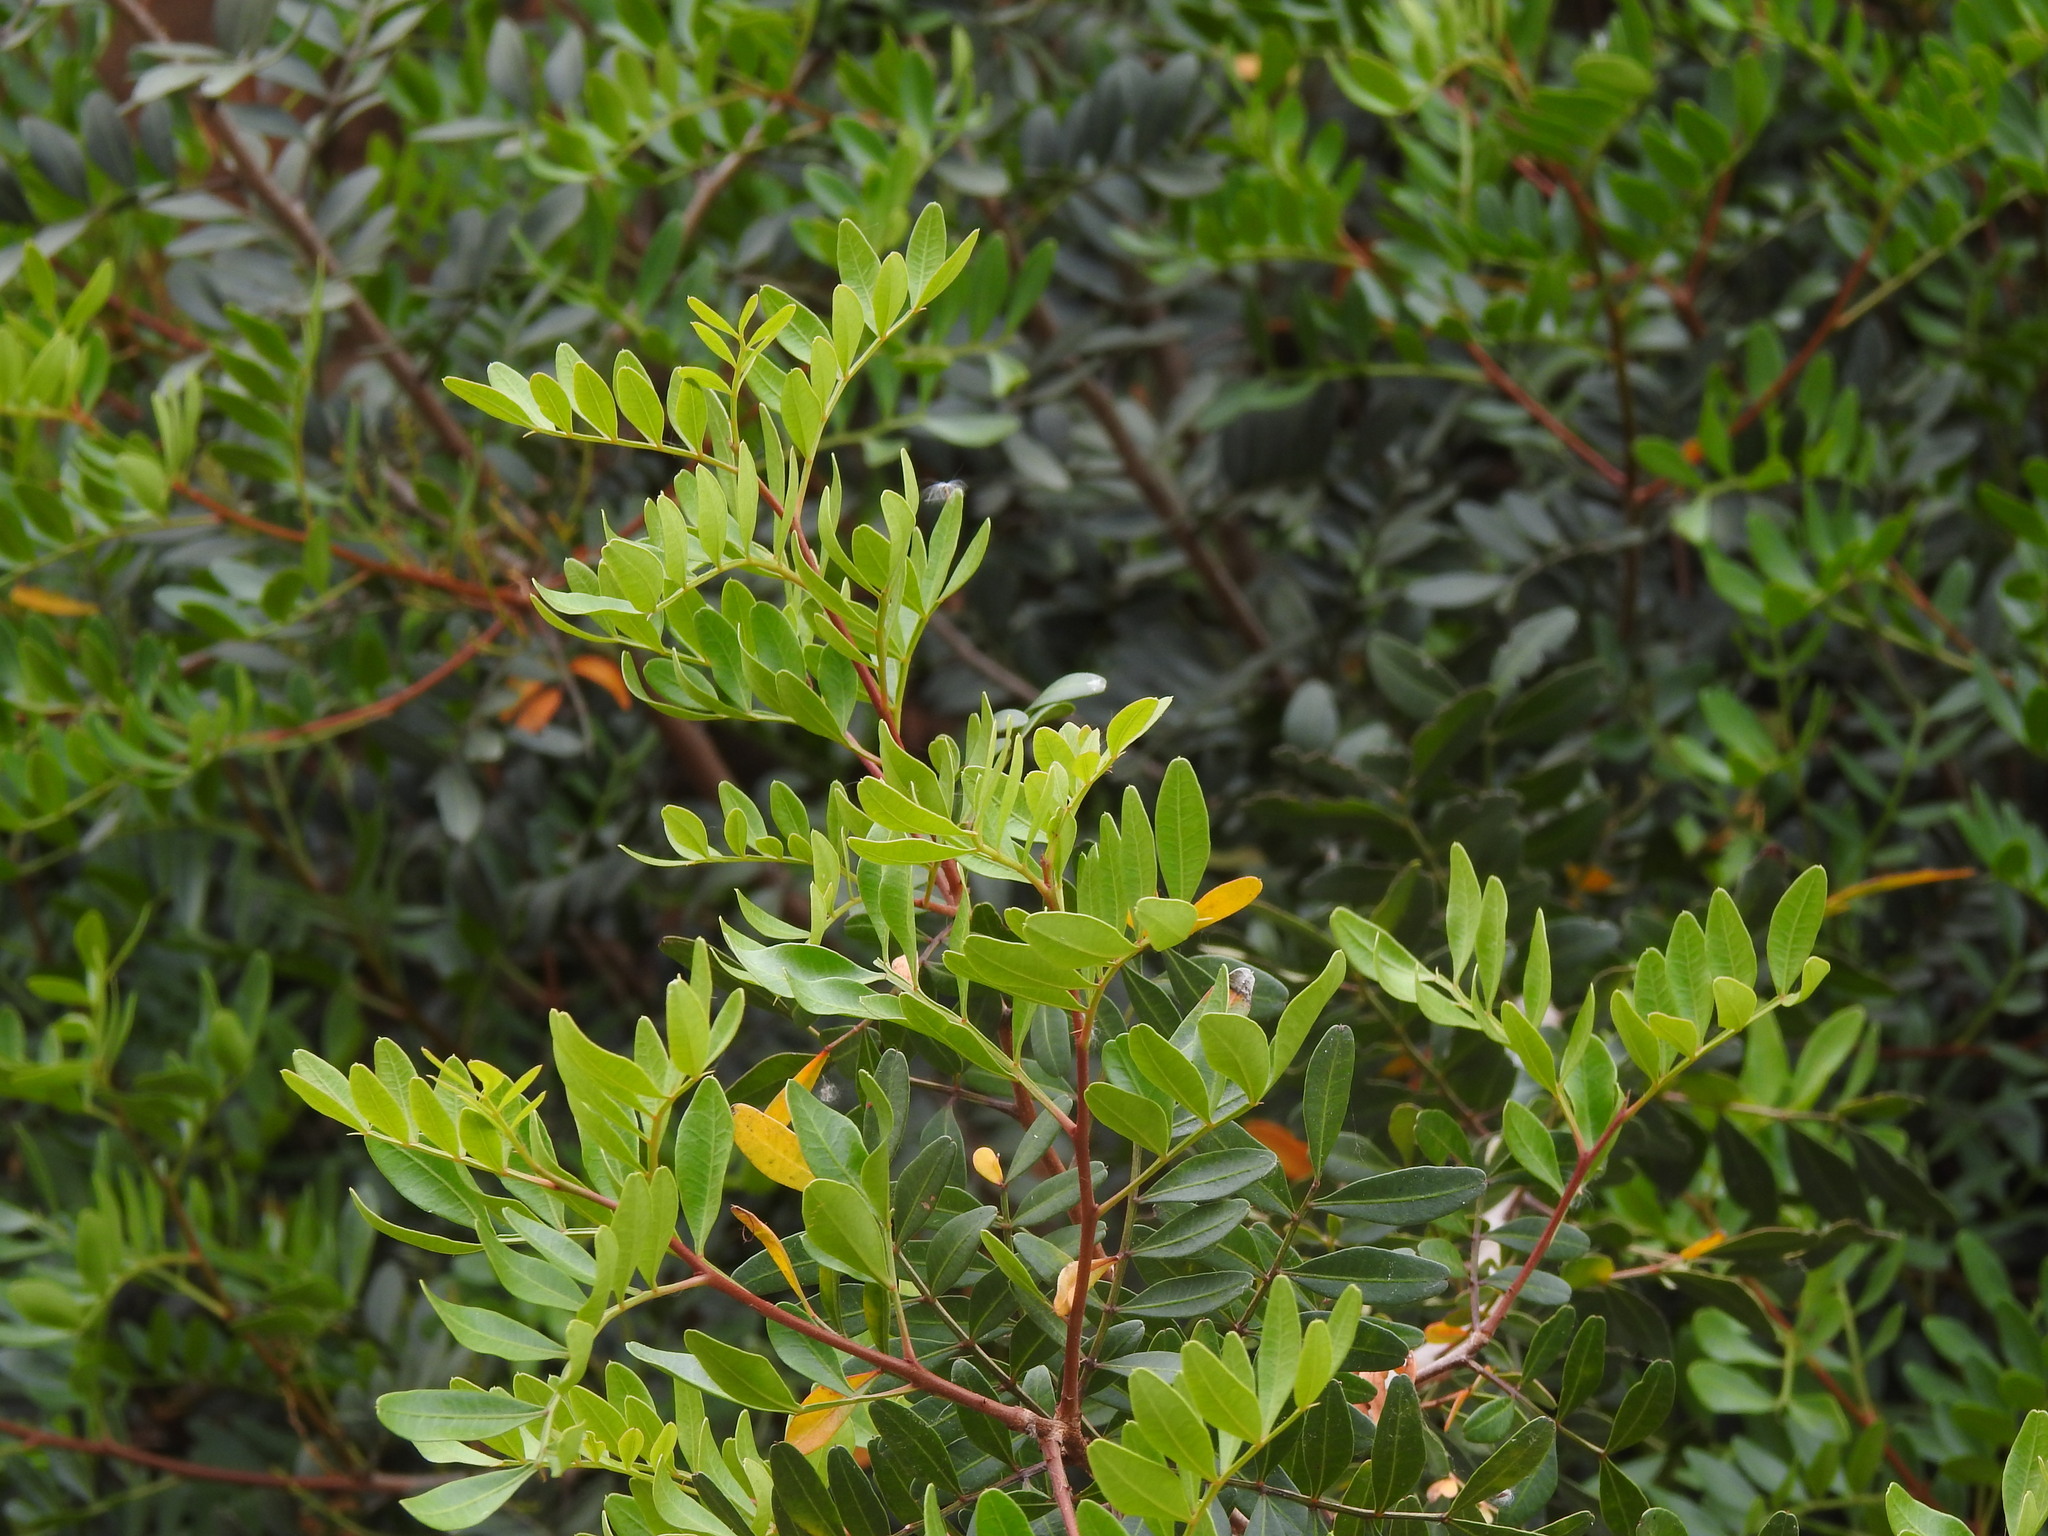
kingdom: Plantae
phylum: Tracheophyta
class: Magnoliopsida
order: Sapindales
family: Anacardiaceae
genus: Pistacia
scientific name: Pistacia lentiscus
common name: Lentisk
